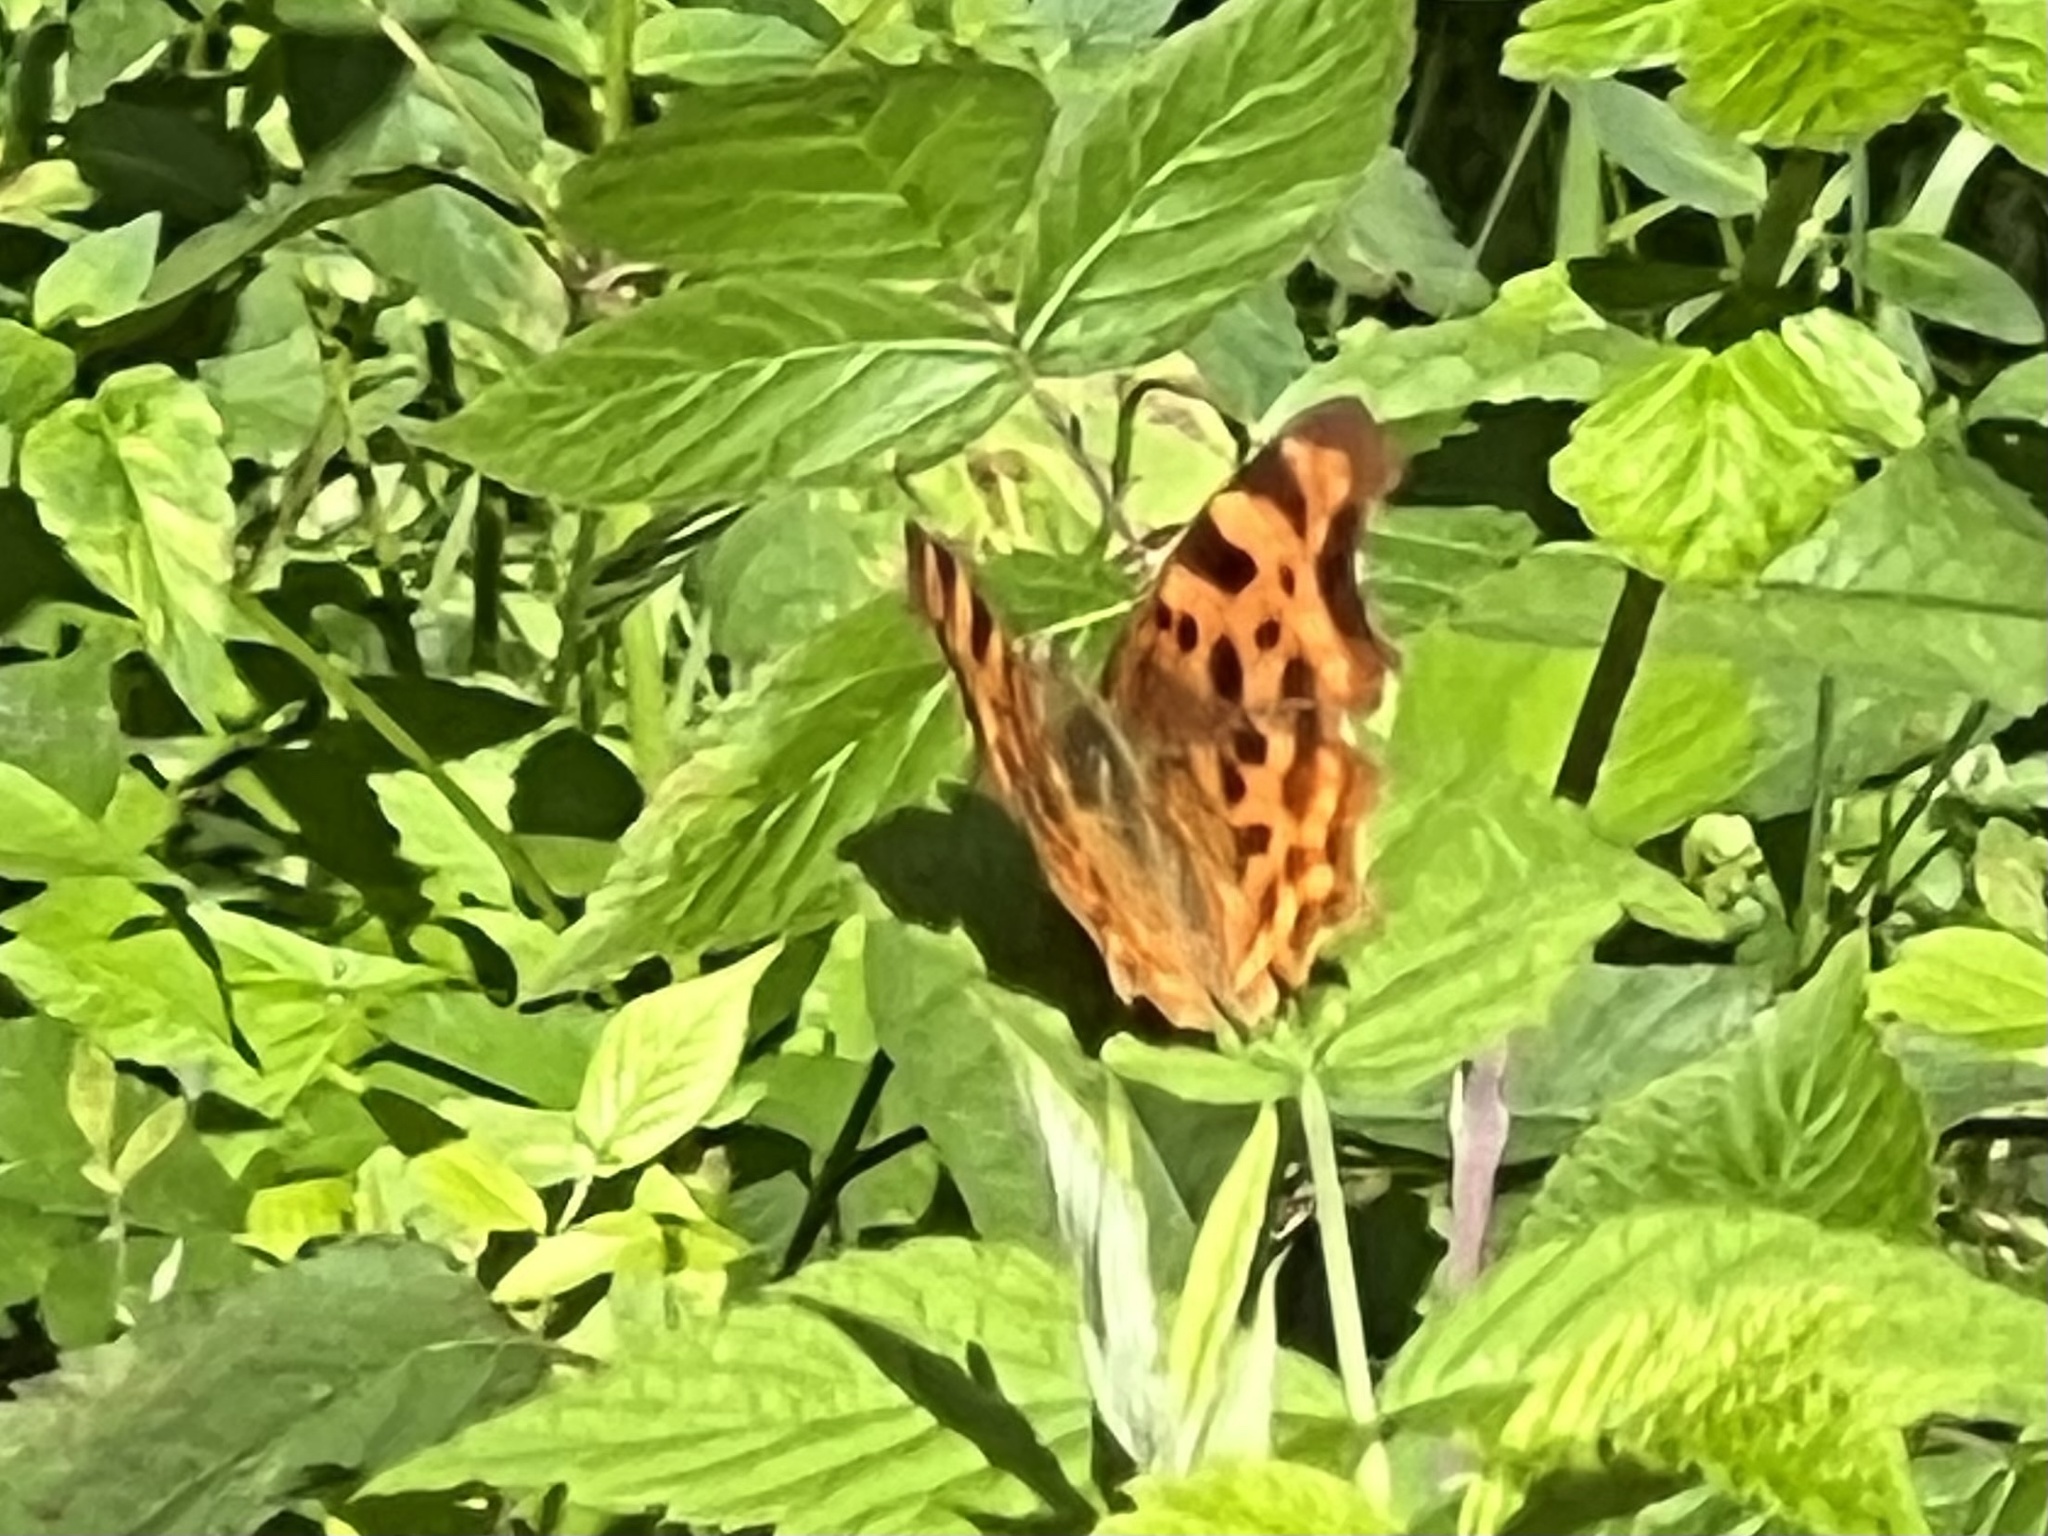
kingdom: Animalia
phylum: Arthropoda
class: Insecta
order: Lepidoptera
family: Nymphalidae
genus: Polygonia
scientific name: Polygonia c-album
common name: Comma
